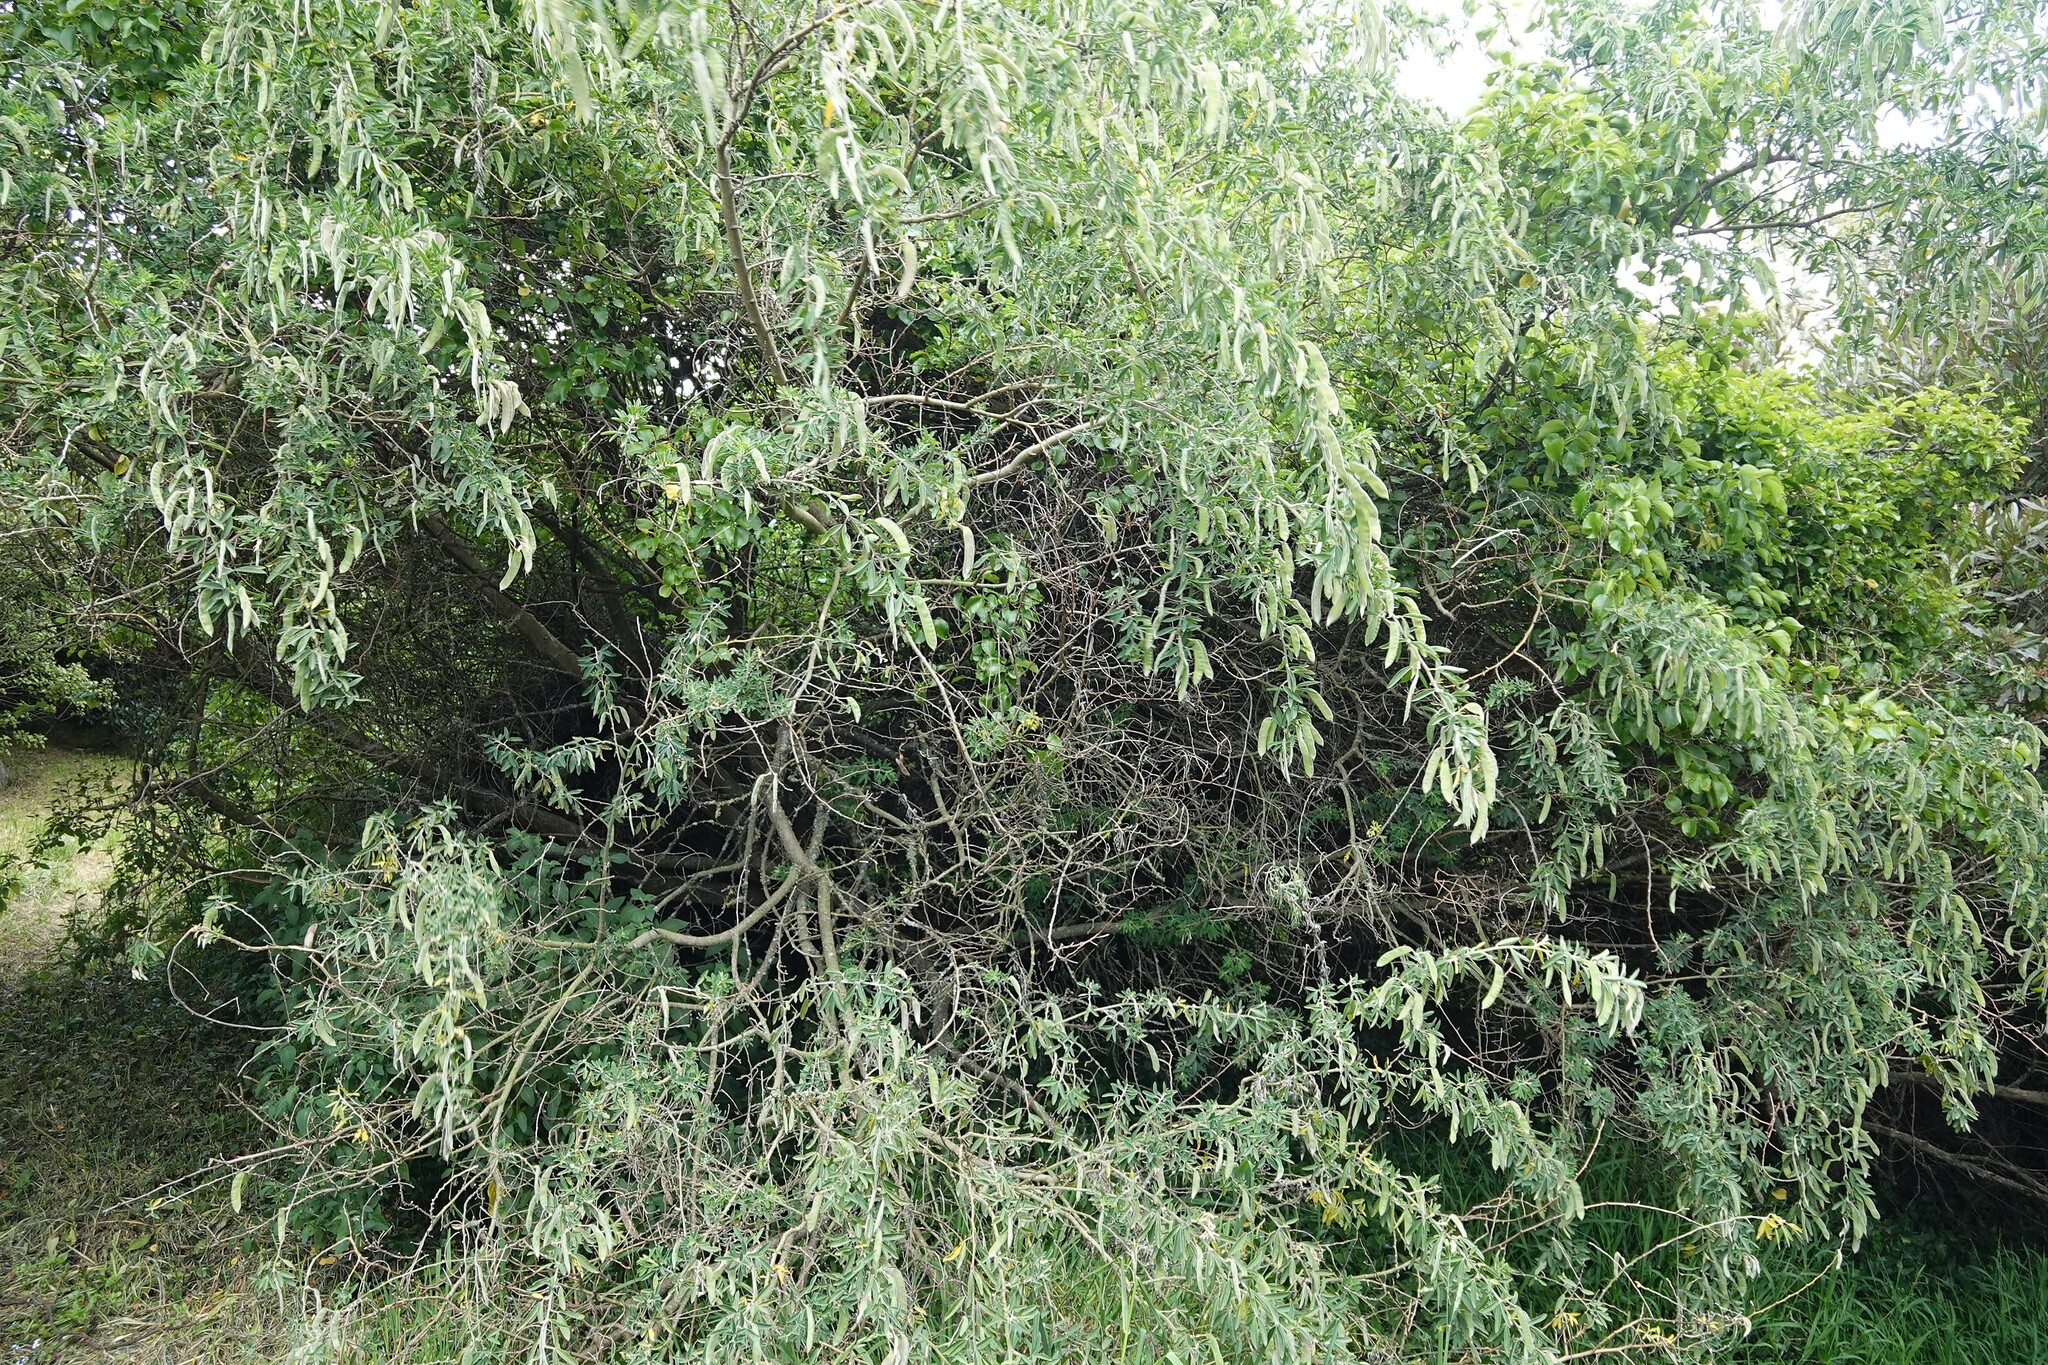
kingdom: Plantae
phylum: Tracheophyta
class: Magnoliopsida
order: Fabales
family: Fabaceae
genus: Chamaecytisus
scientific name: Chamaecytisus prolifer
